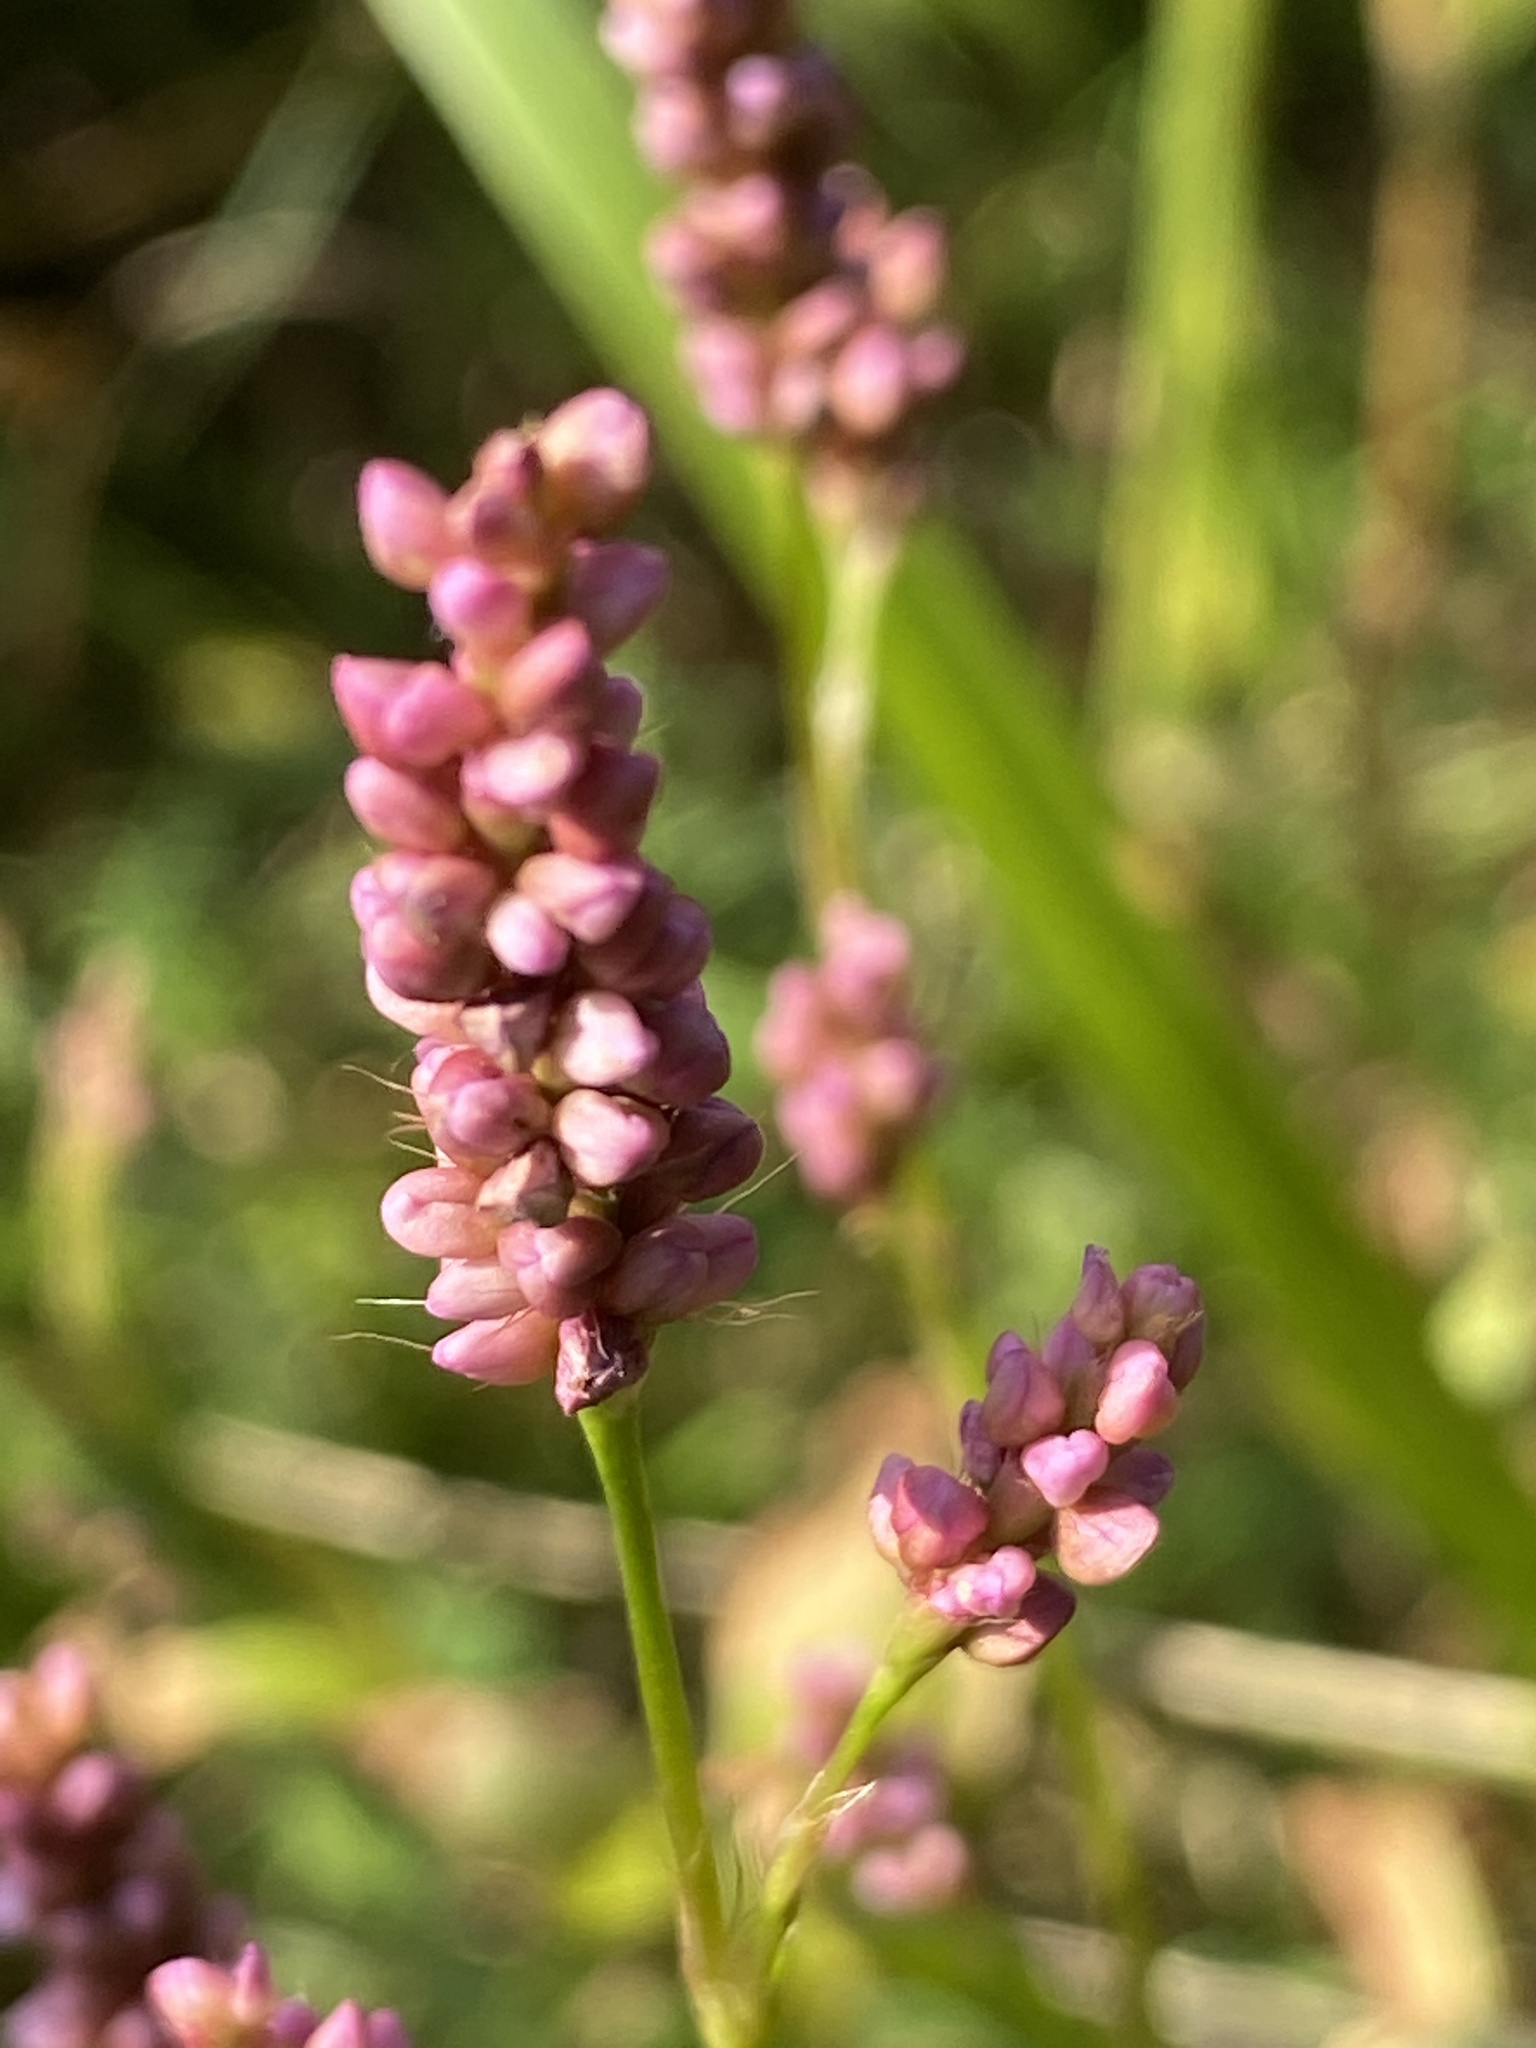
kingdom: Plantae
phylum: Tracheophyta
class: Magnoliopsida
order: Caryophyllales
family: Polygonaceae
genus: Persicaria
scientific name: Persicaria longiseta
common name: Bristly lady's-thumb
